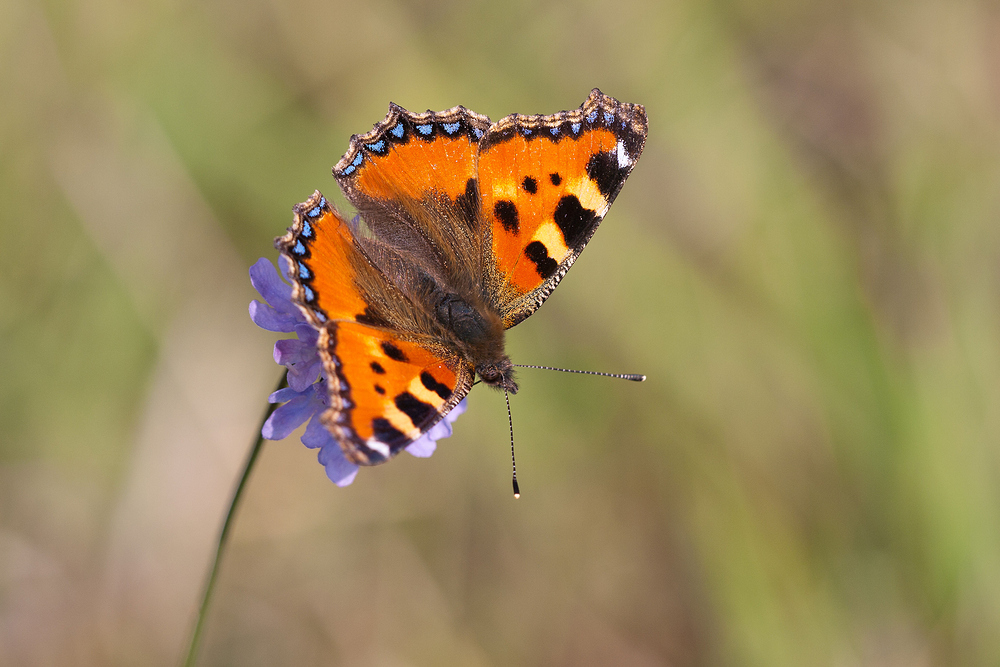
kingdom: Animalia
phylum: Arthropoda
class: Insecta
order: Lepidoptera
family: Nymphalidae
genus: Aglais
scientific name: Aglais urticae
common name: Small tortoiseshell
